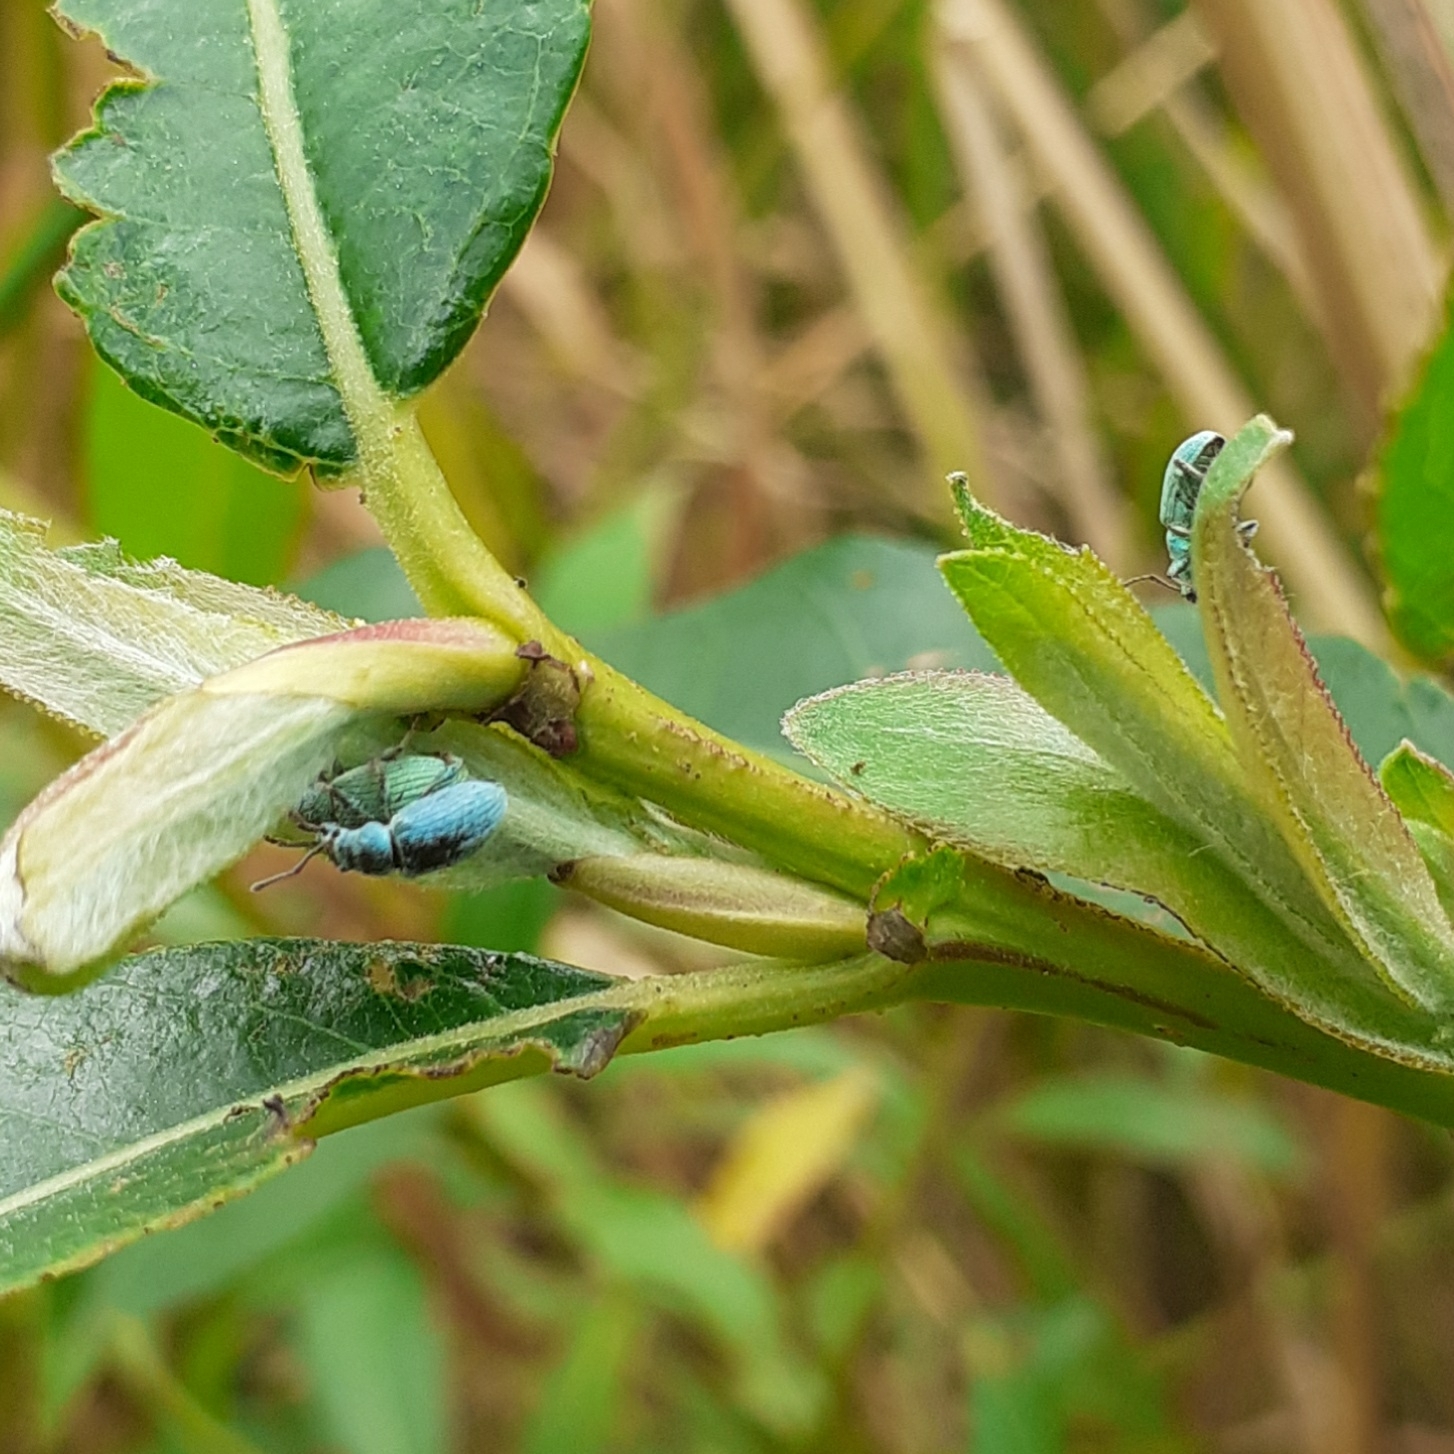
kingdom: Animalia
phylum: Arthropoda
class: Insecta
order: Coleoptera
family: Curculionidae
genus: Phyllobius
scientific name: Phyllobius virideaeris
